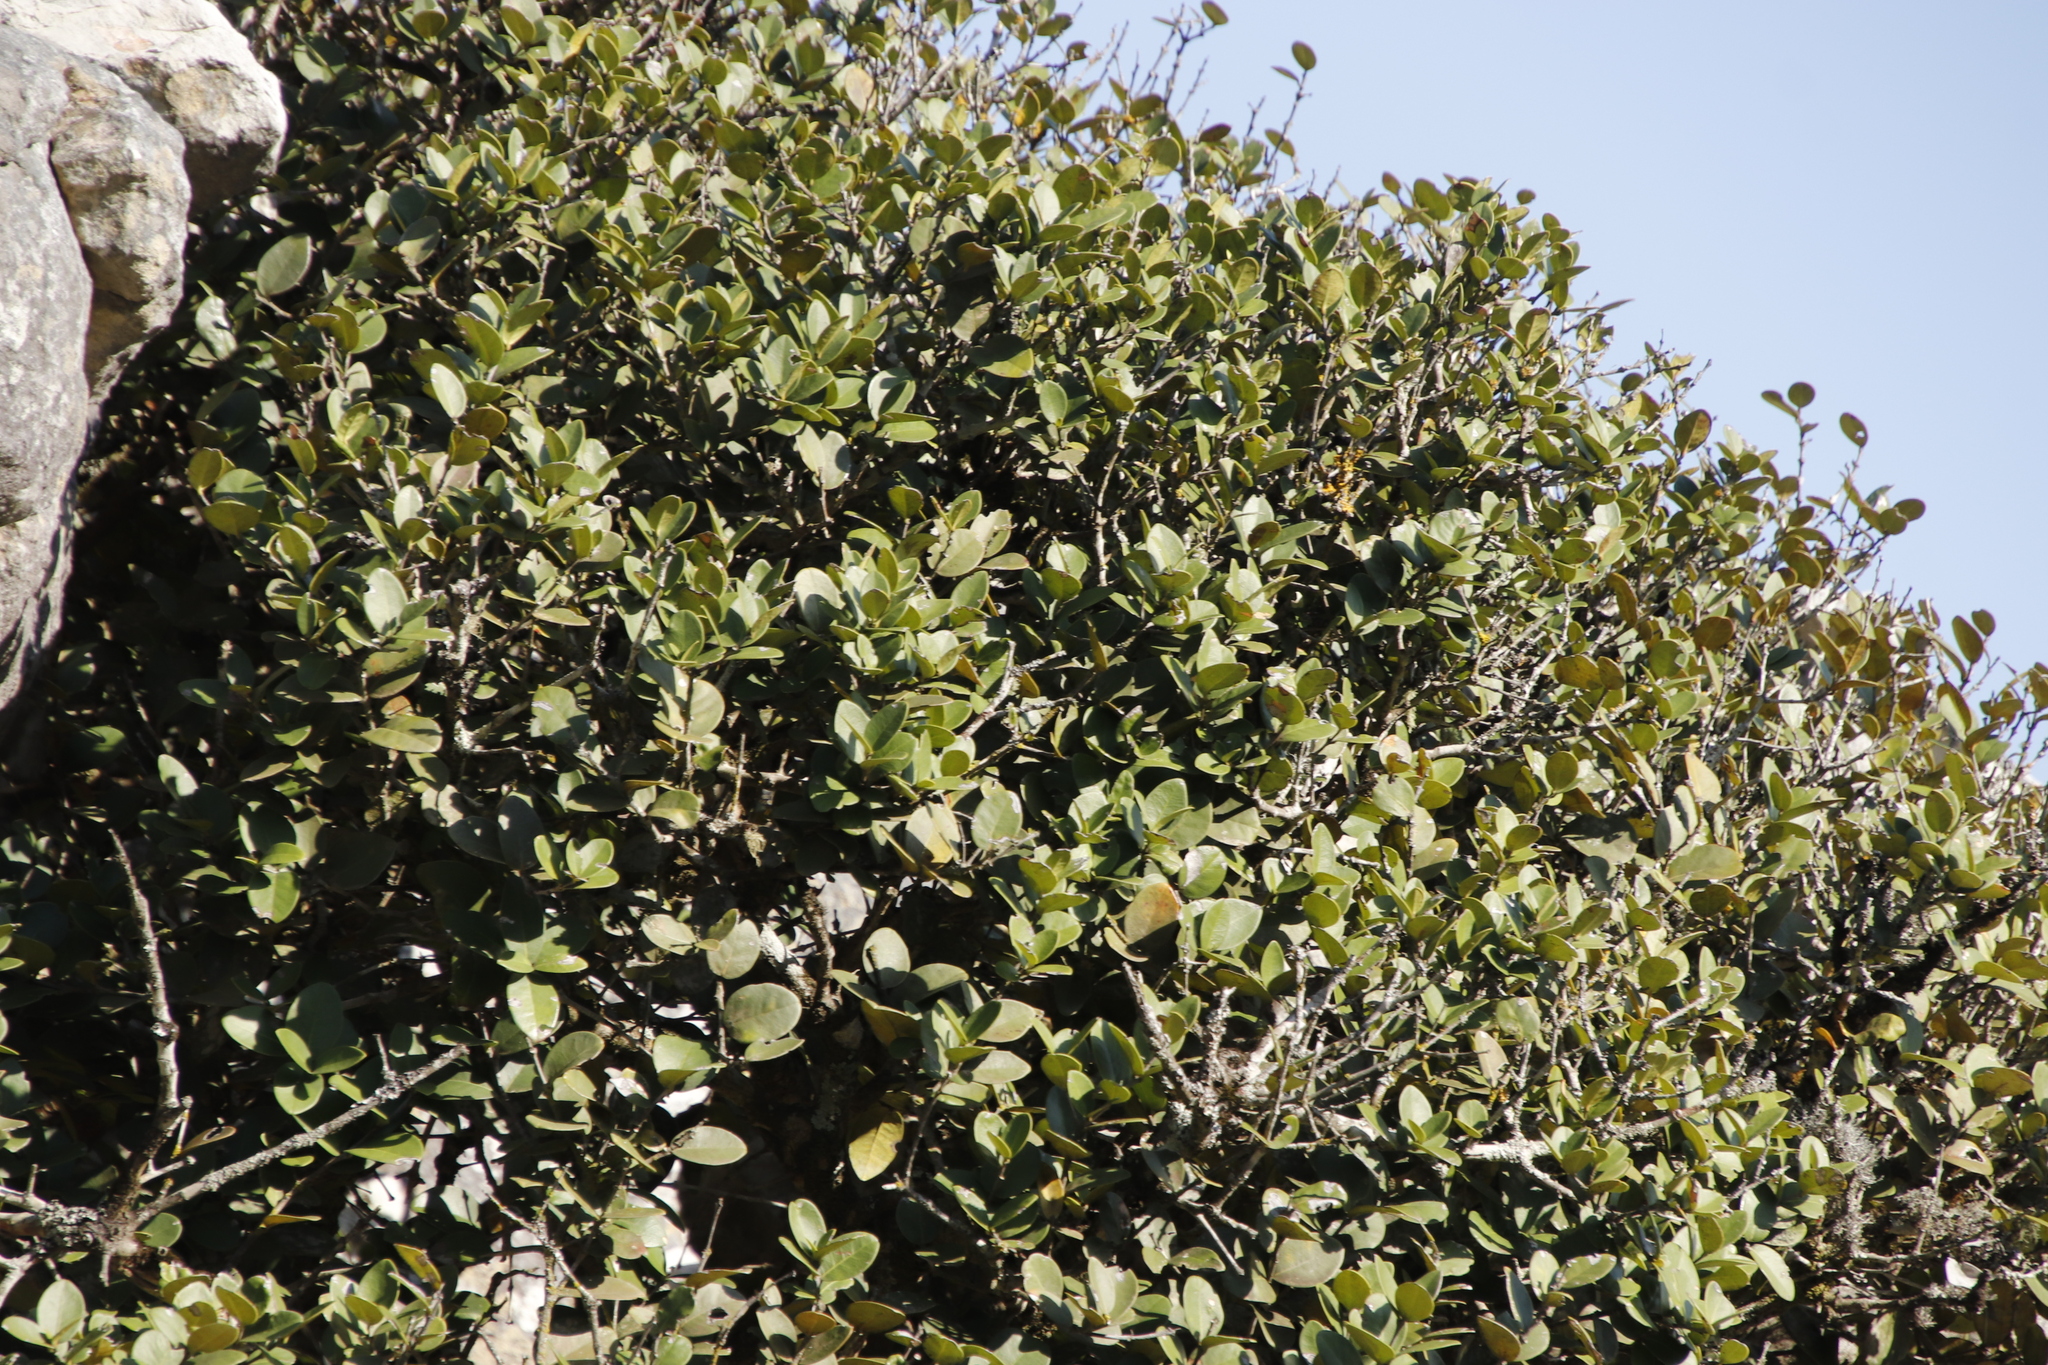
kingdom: Plantae
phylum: Tracheophyta
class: Magnoliopsida
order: Celastrales
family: Celastraceae
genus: Maurocenia
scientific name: Maurocenia frangula
